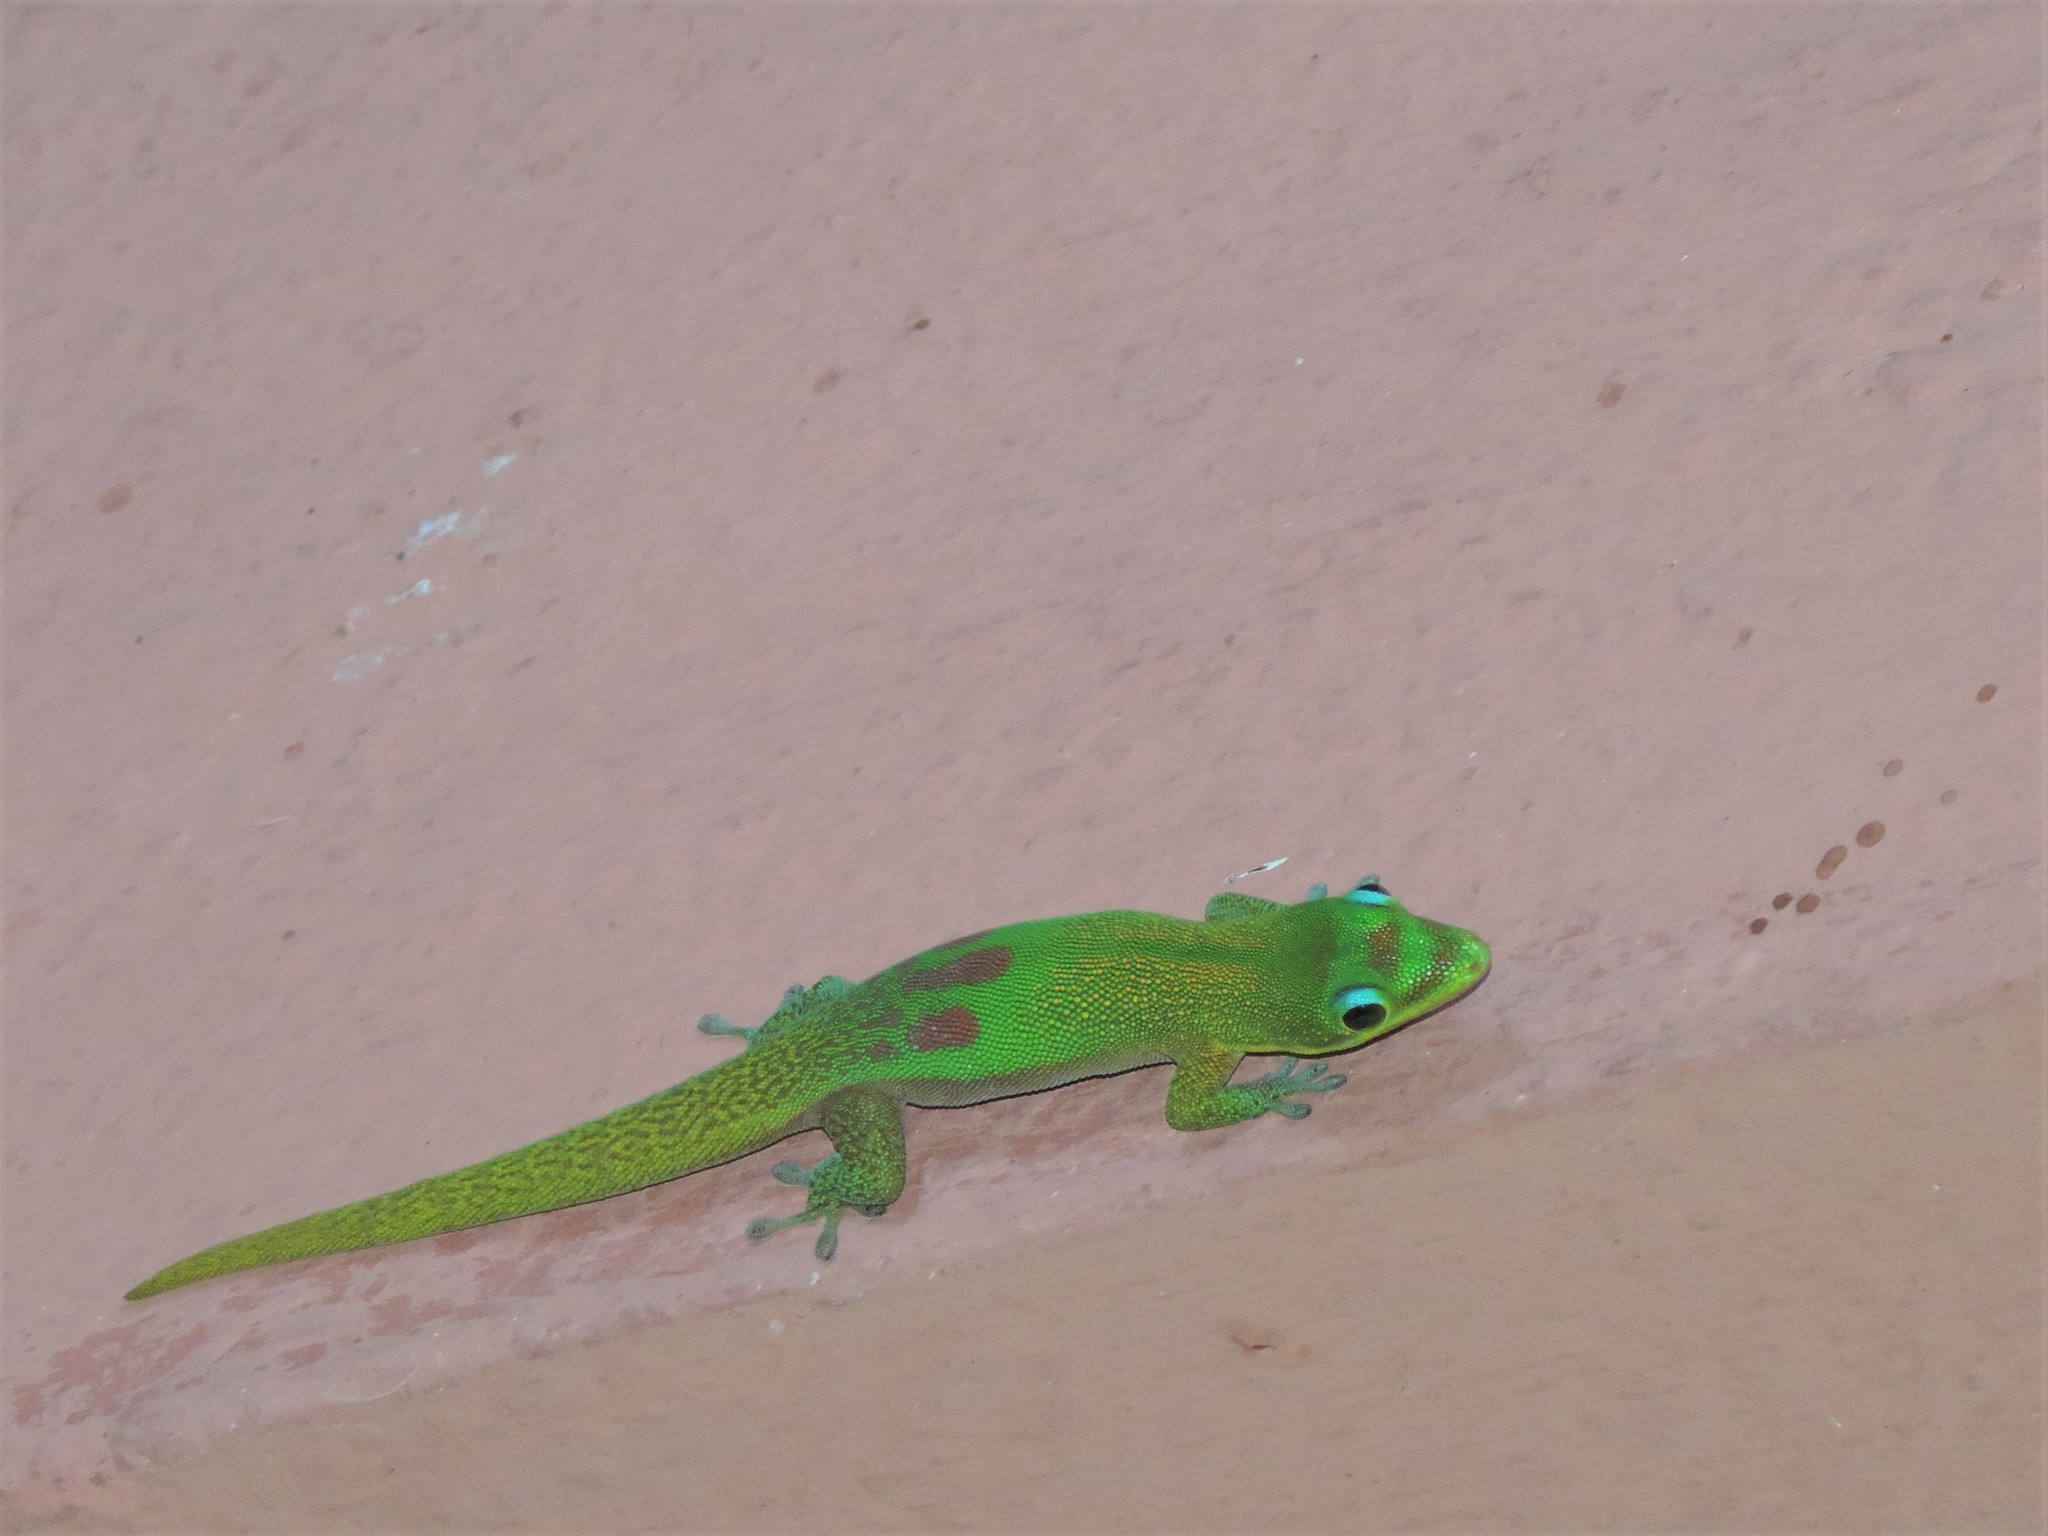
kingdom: Animalia
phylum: Chordata
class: Squamata
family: Gekkonidae
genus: Phelsuma
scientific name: Phelsuma laticauda
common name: Gold dust day gecko
